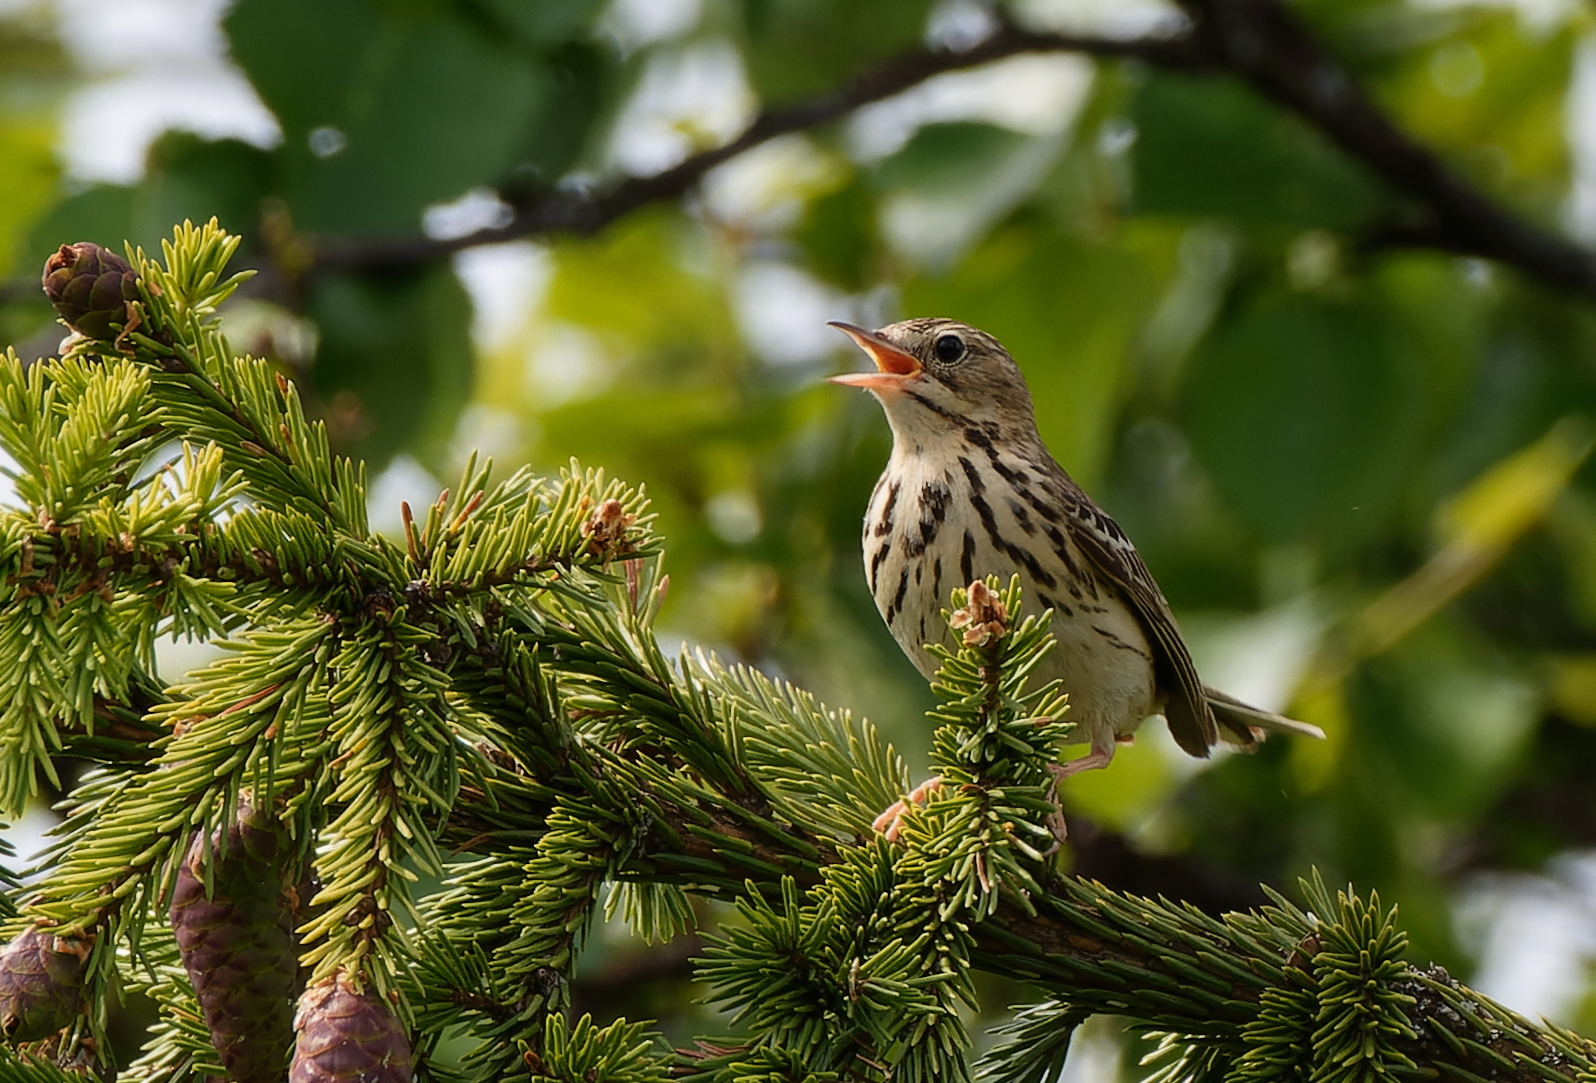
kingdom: Animalia
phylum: Chordata
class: Aves
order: Passeriformes
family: Motacillidae
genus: Anthus
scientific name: Anthus trivialis
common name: Tree pipit
